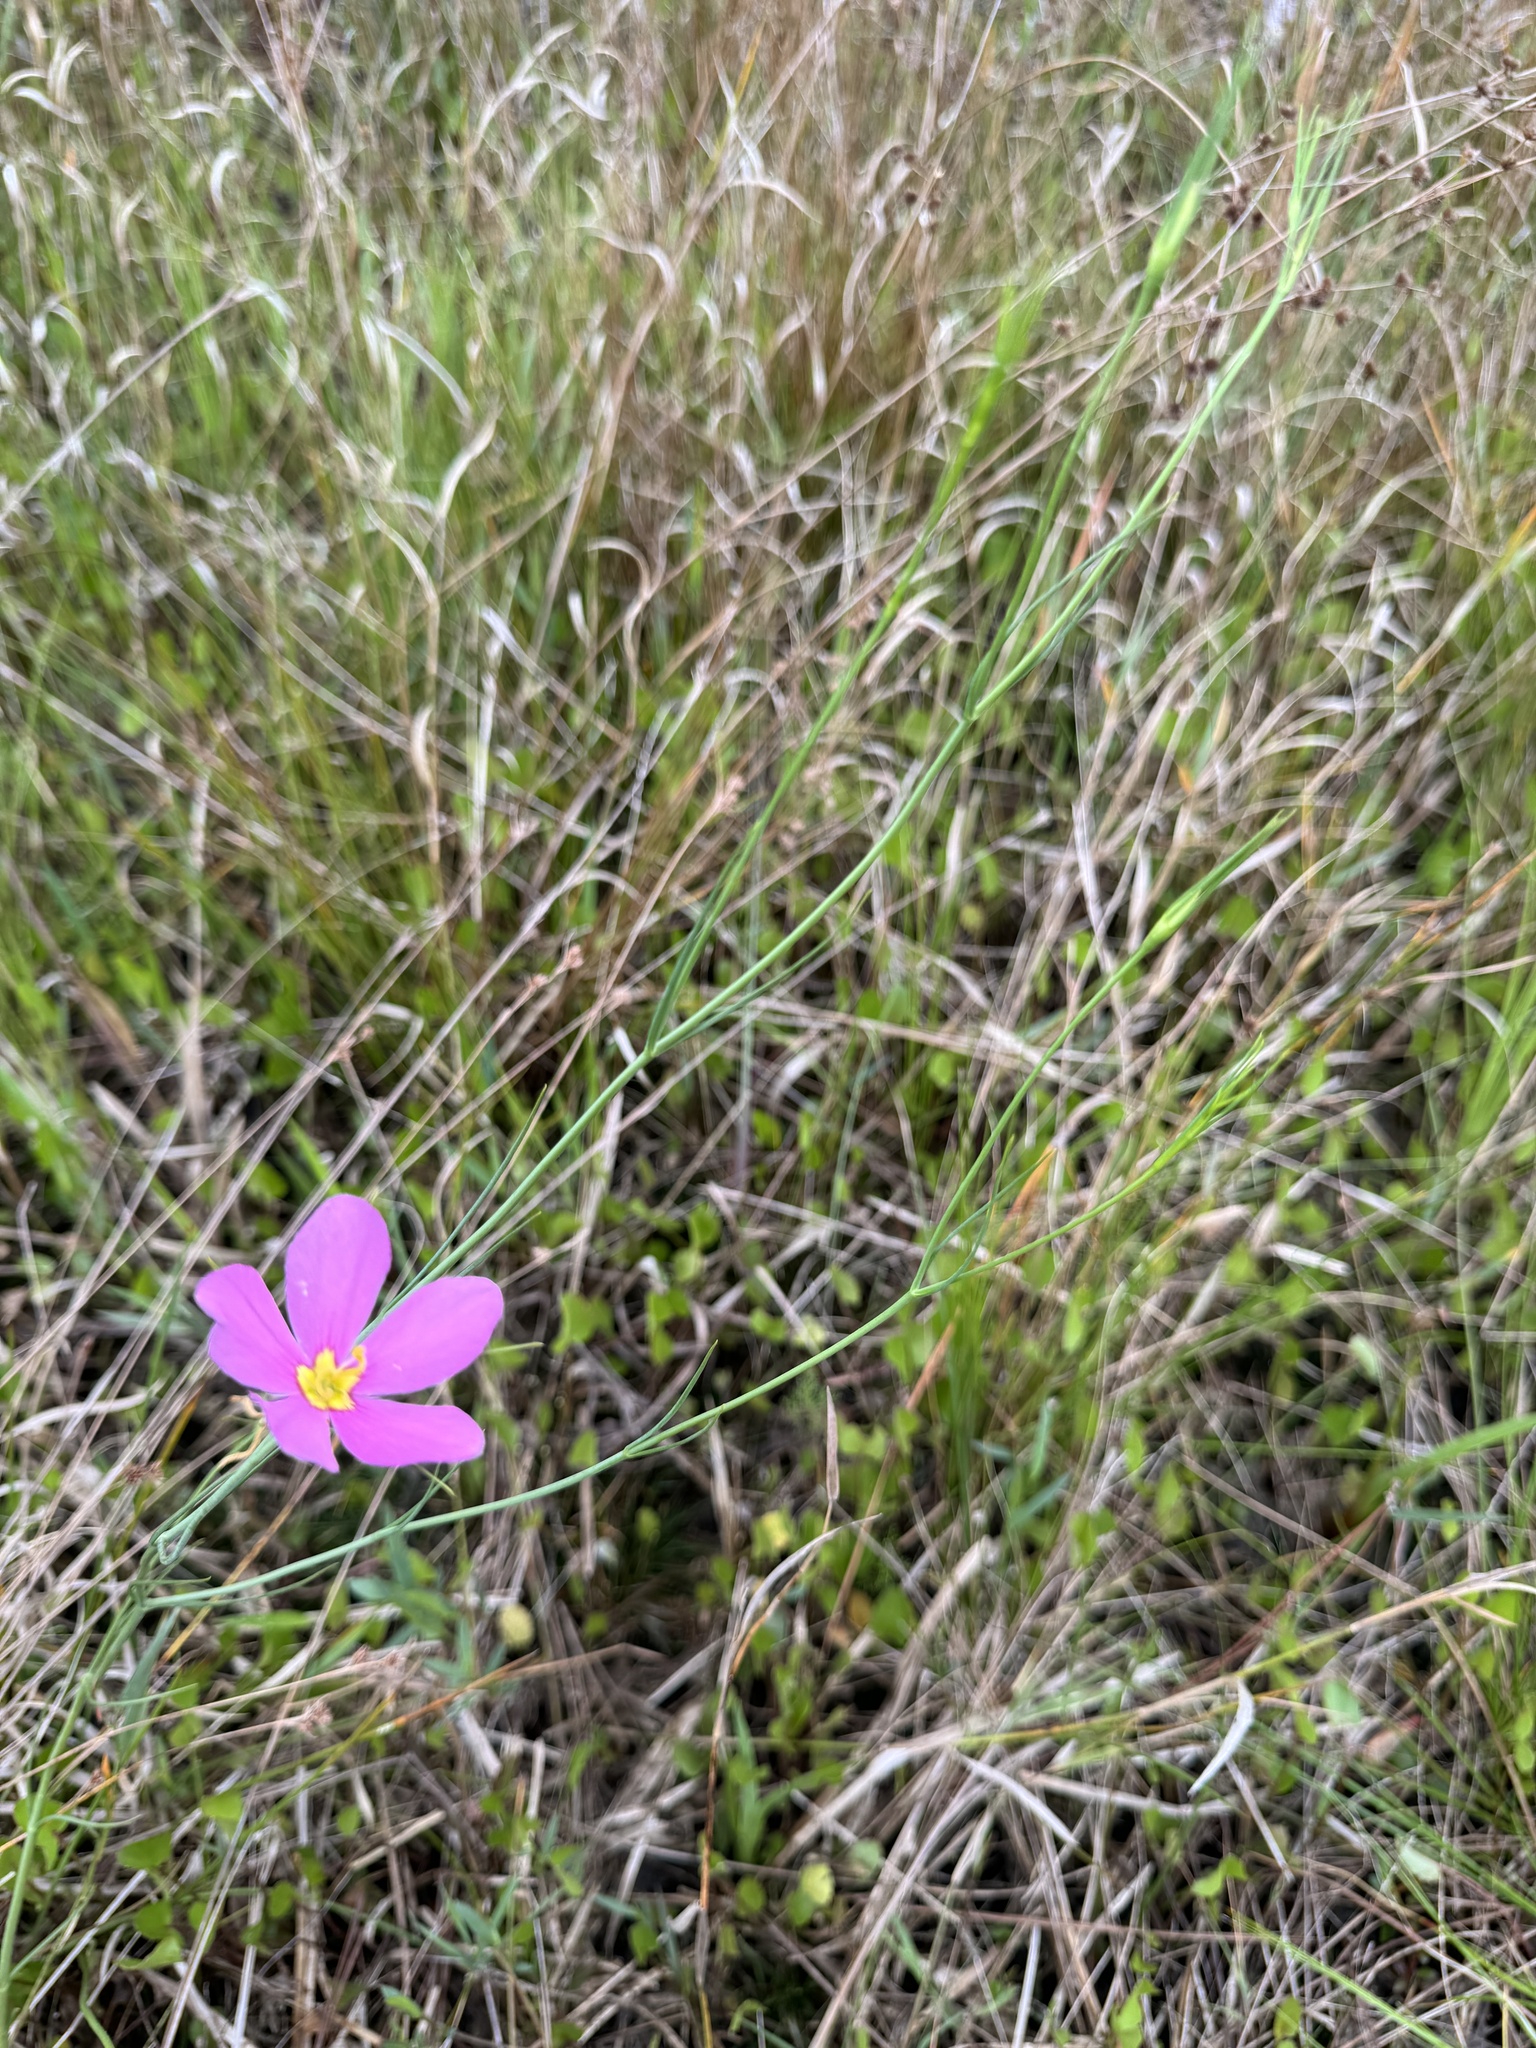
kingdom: Plantae
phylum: Tracheophyta
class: Magnoliopsida
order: Gentianales
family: Gentianaceae
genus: Sabatia
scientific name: Sabatia grandiflora
